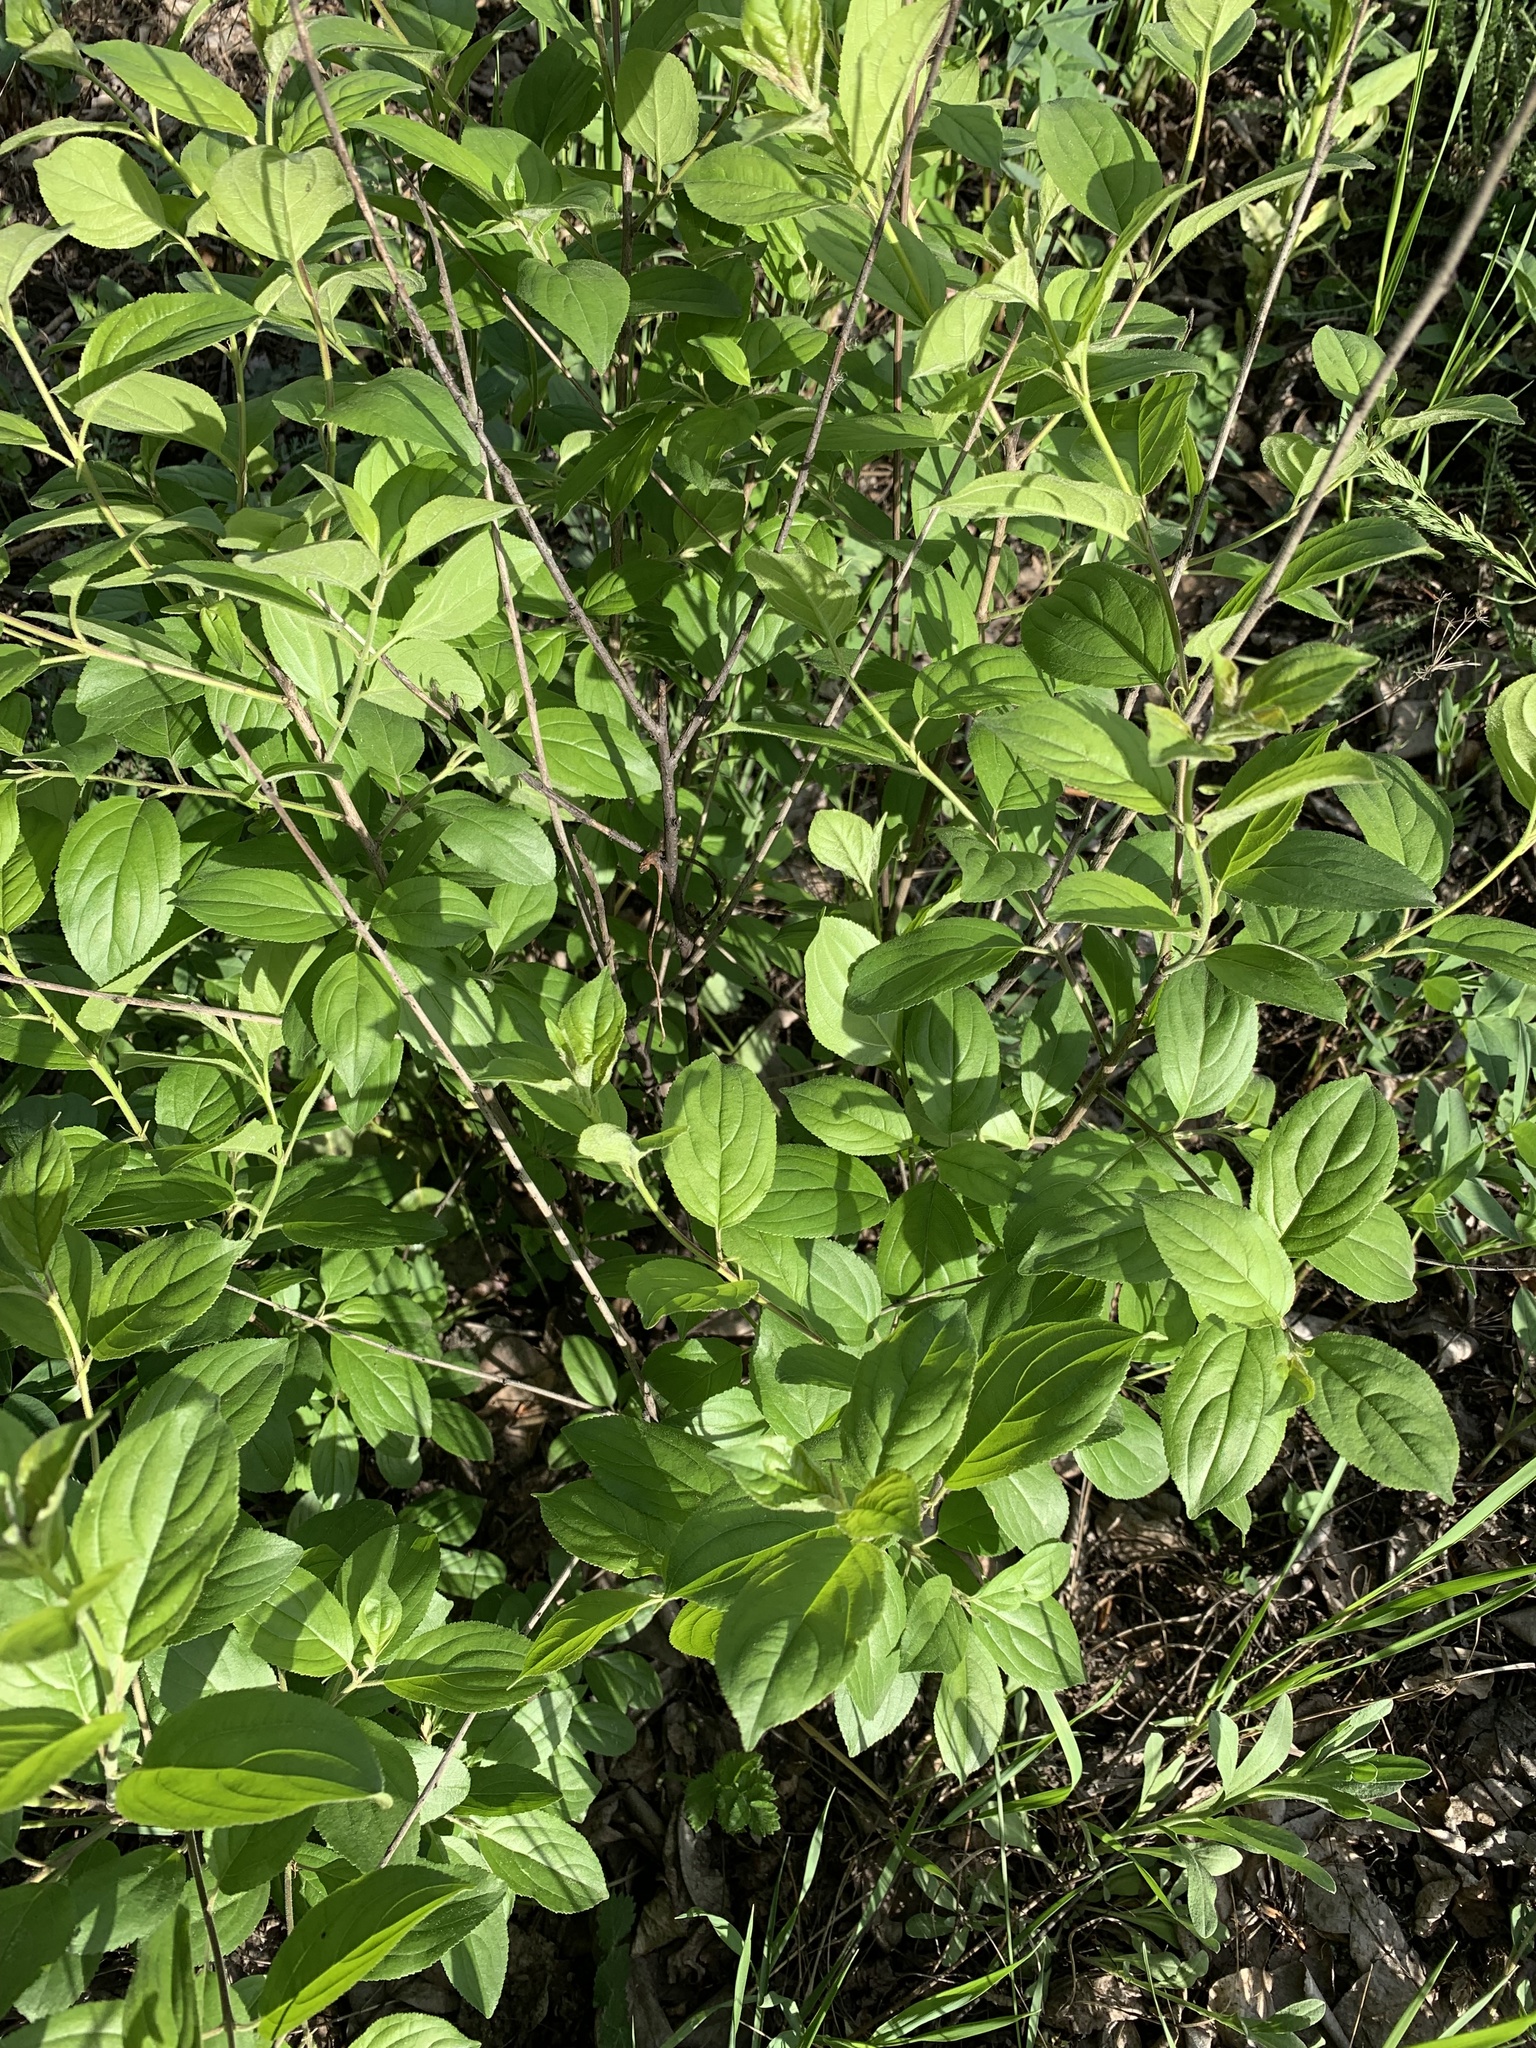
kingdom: Plantae
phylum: Tracheophyta
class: Magnoliopsida
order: Rosales
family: Rhamnaceae
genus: Rhamnus
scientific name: Rhamnus cathartica
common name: Common buckthorn
